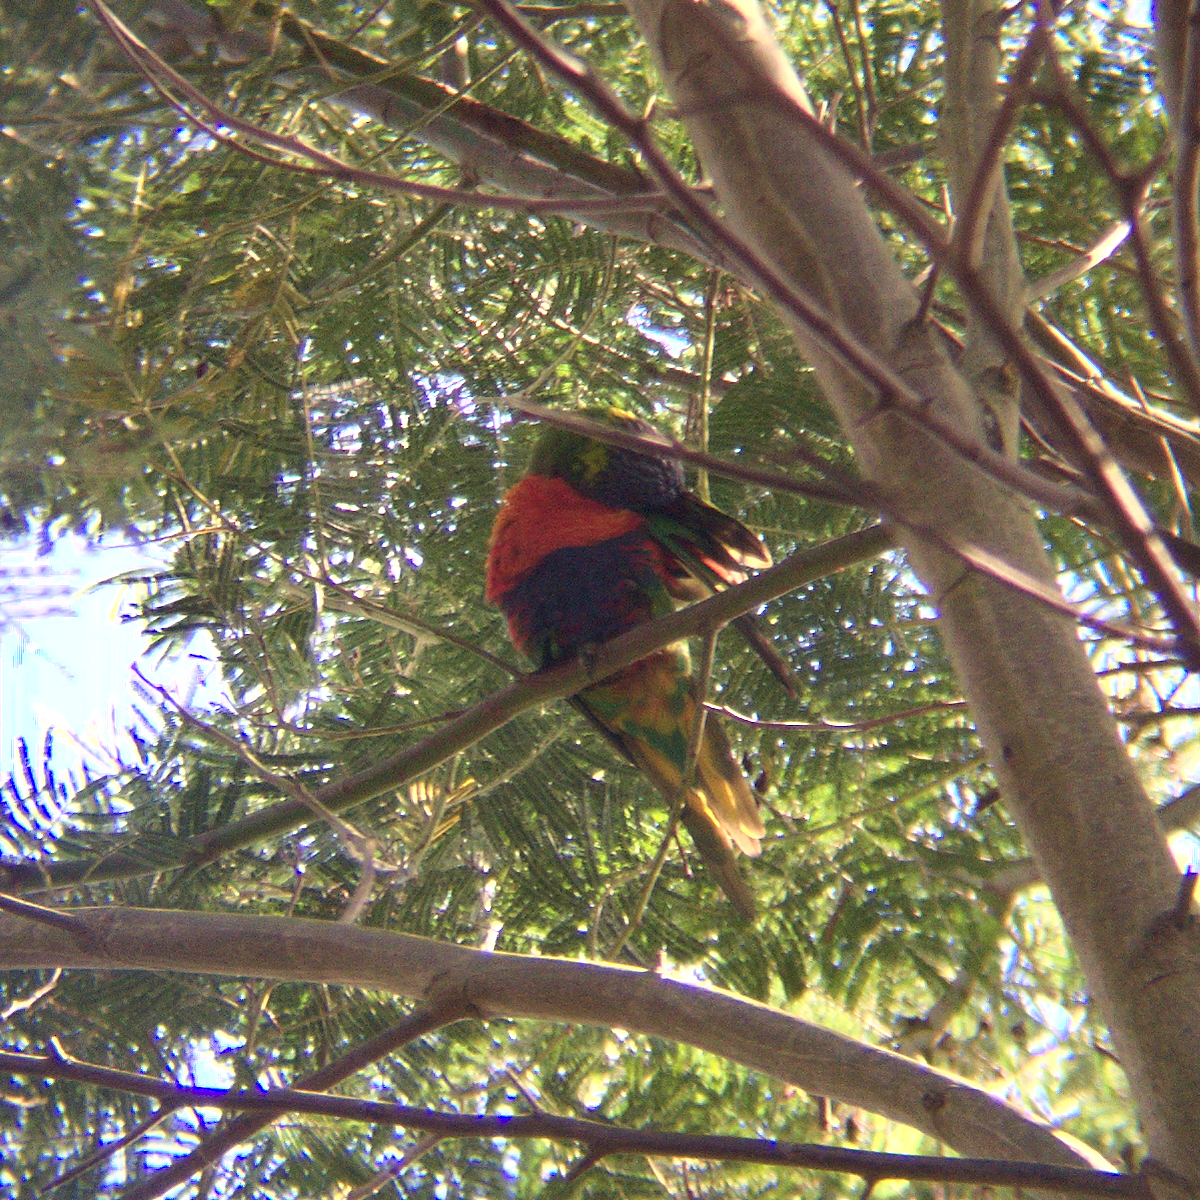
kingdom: Animalia
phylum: Chordata
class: Aves
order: Psittaciformes
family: Psittacidae
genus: Trichoglossus
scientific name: Trichoglossus haematodus
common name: Coconut lorikeet
